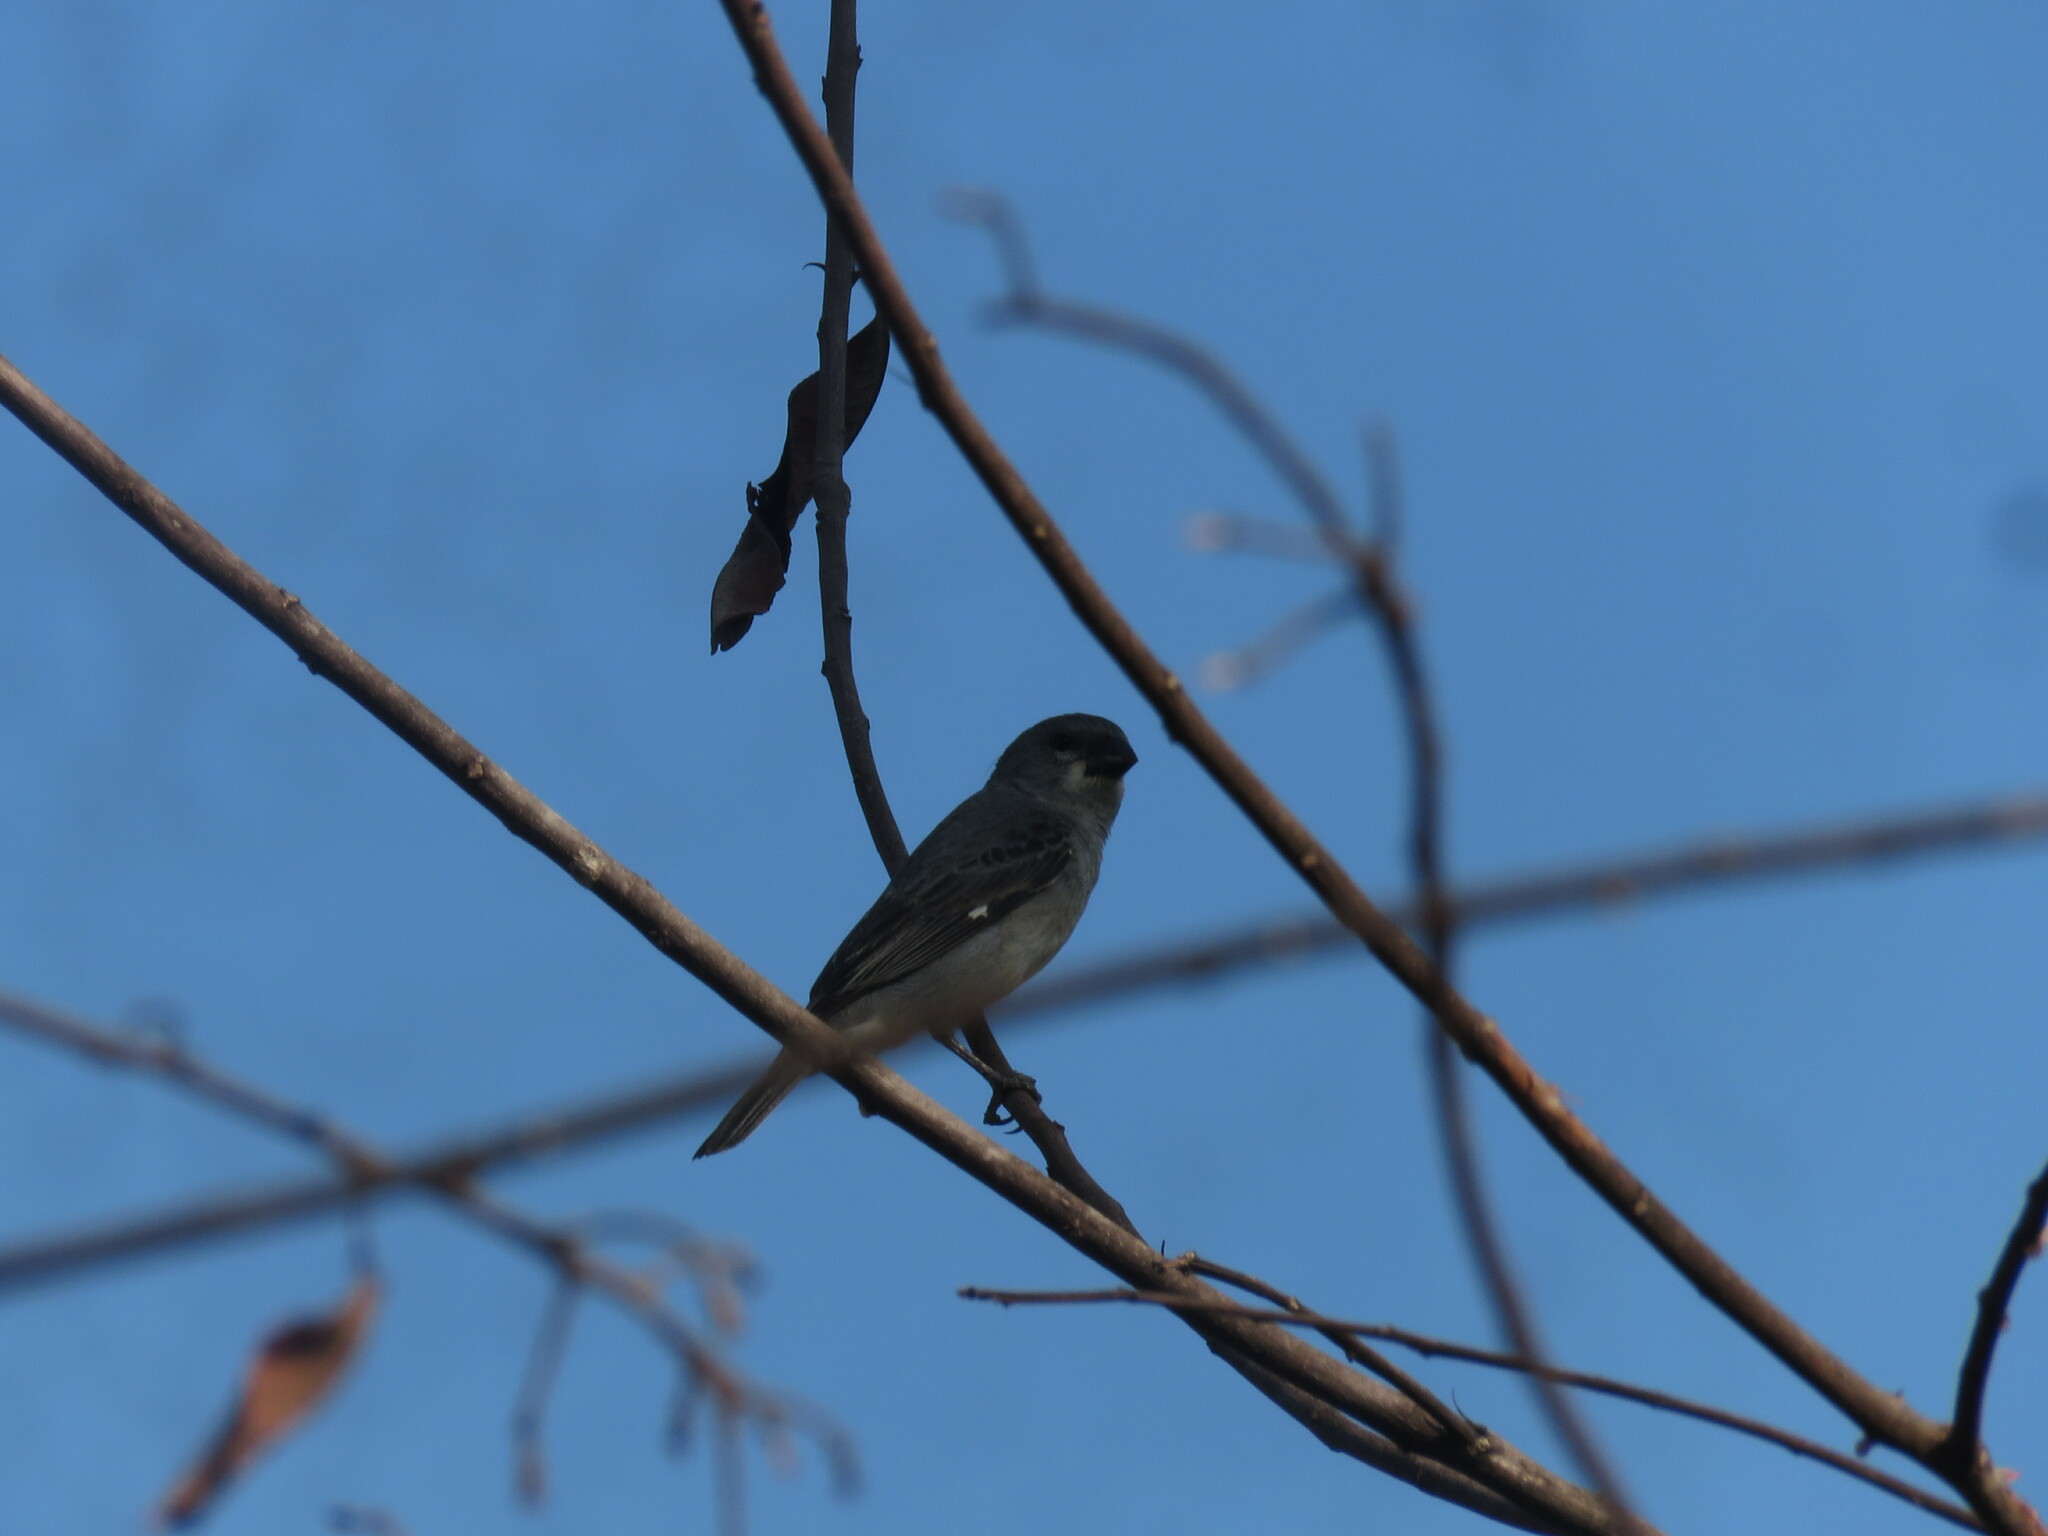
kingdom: Animalia
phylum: Chordata
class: Aves
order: Passeriformes
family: Thraupidae
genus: Sporophila
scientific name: Sporophila plumbea
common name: Plumbeous seedeater
